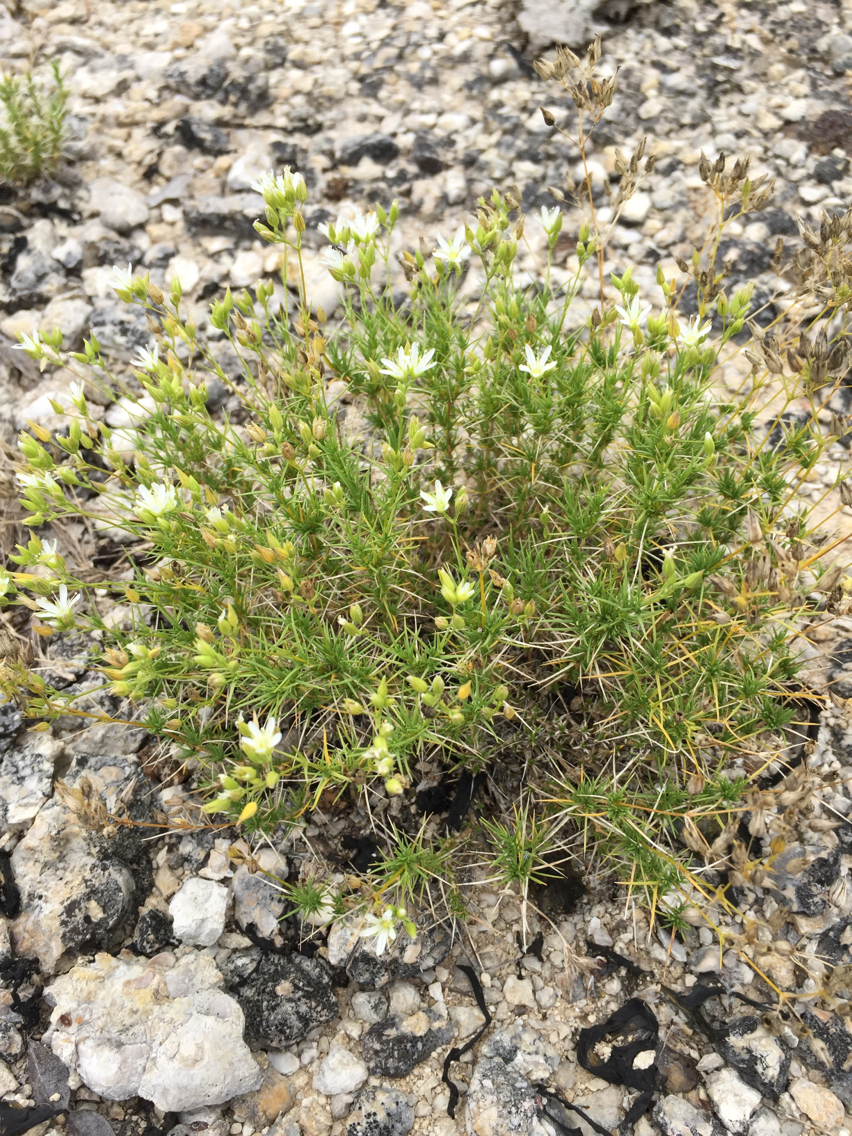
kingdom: Plantae
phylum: Tracheophyta
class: Magnoliopsida
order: Caryophyllales
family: Caryophyllaceae
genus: Sabulina
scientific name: Sabulina michauxii
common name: Michaux's stitchwort
